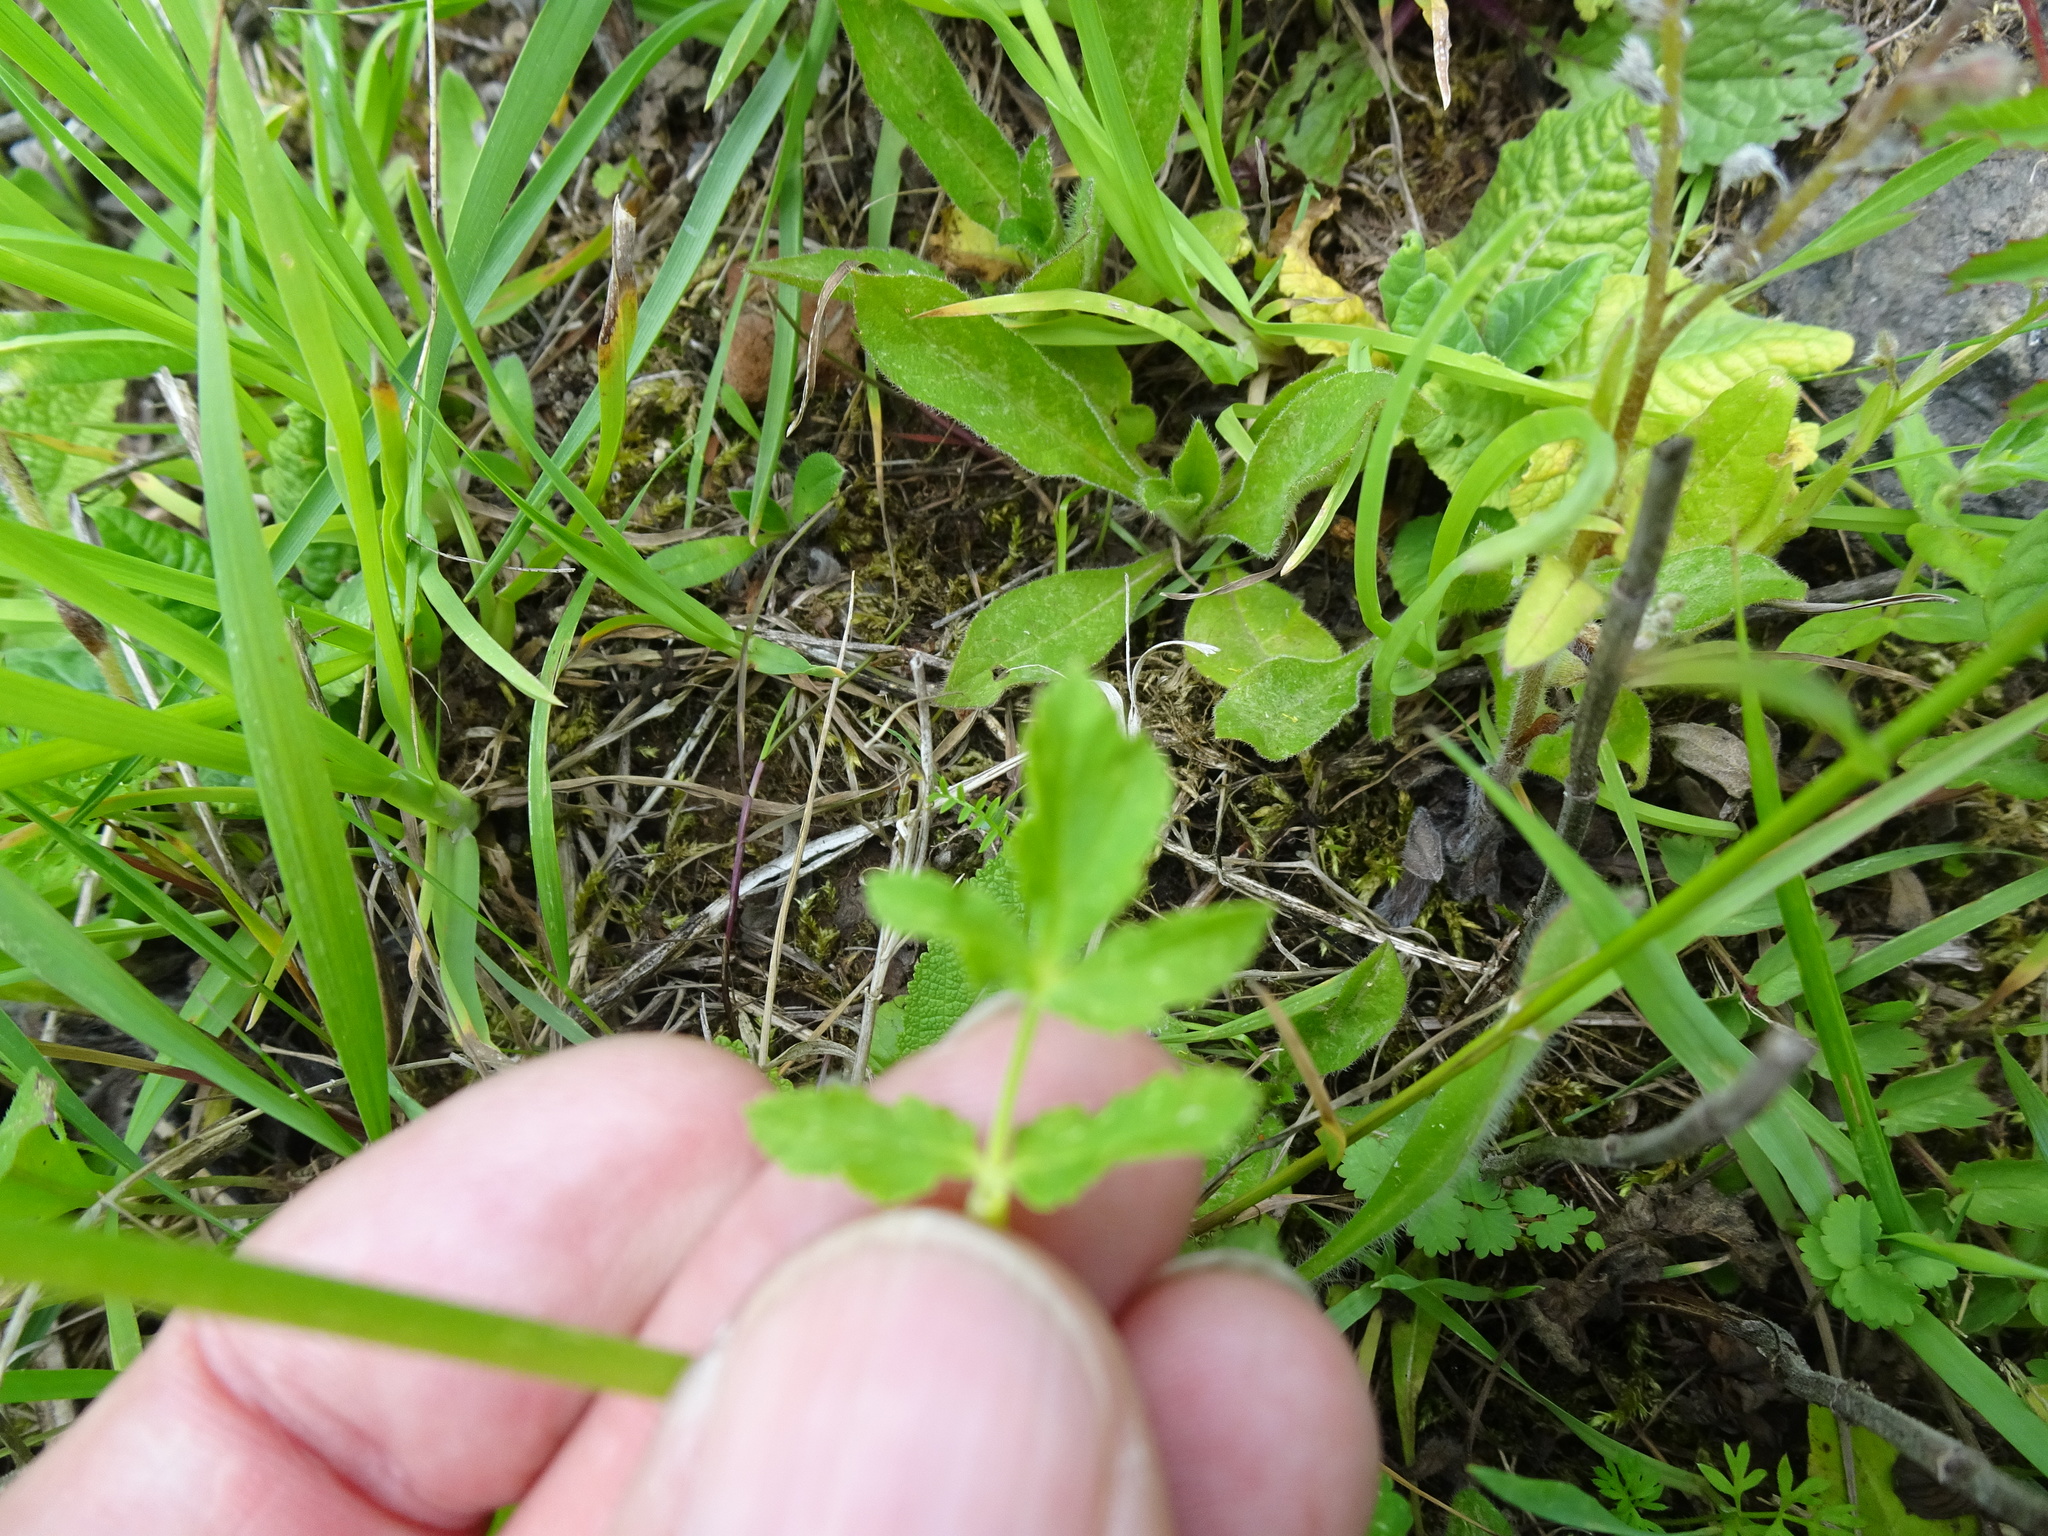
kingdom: Plantae
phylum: Tracheophyta
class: Magnoliopsida
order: Apiales
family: Apiaceae
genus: Pastinaca
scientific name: Pastinaca sativa
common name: Wild parsnip
